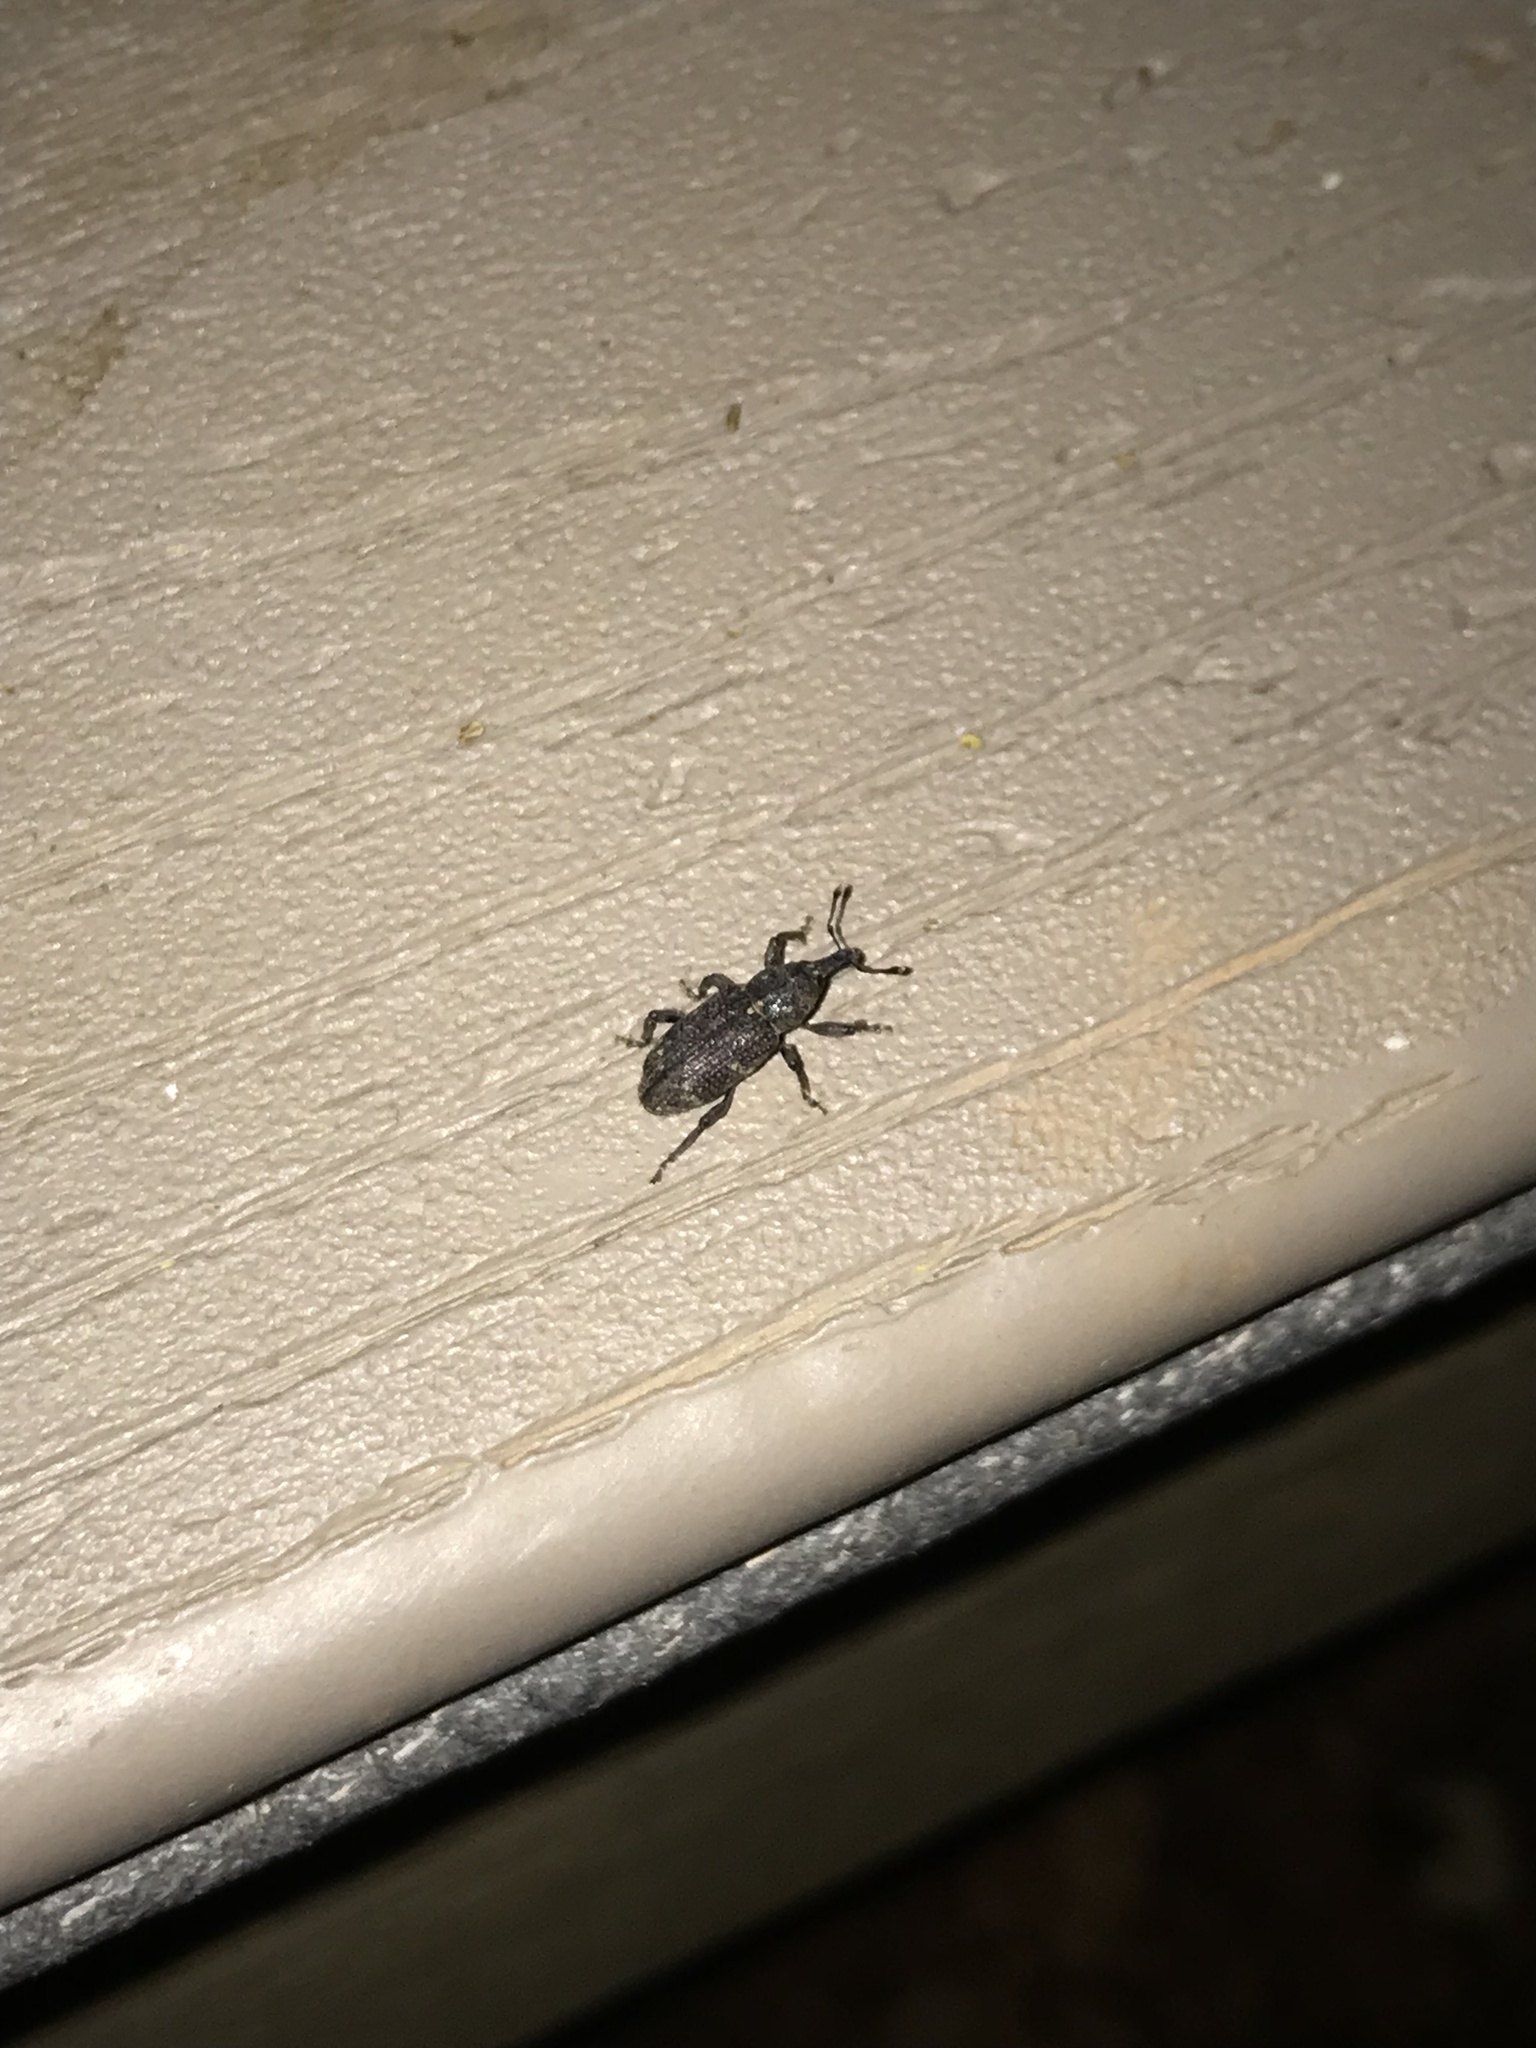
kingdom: Animalia
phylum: Arthropoda
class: Insecta
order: Coleoptera
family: Curculionidae
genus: Hylobius
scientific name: Hylobius pales
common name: Pales weevil
